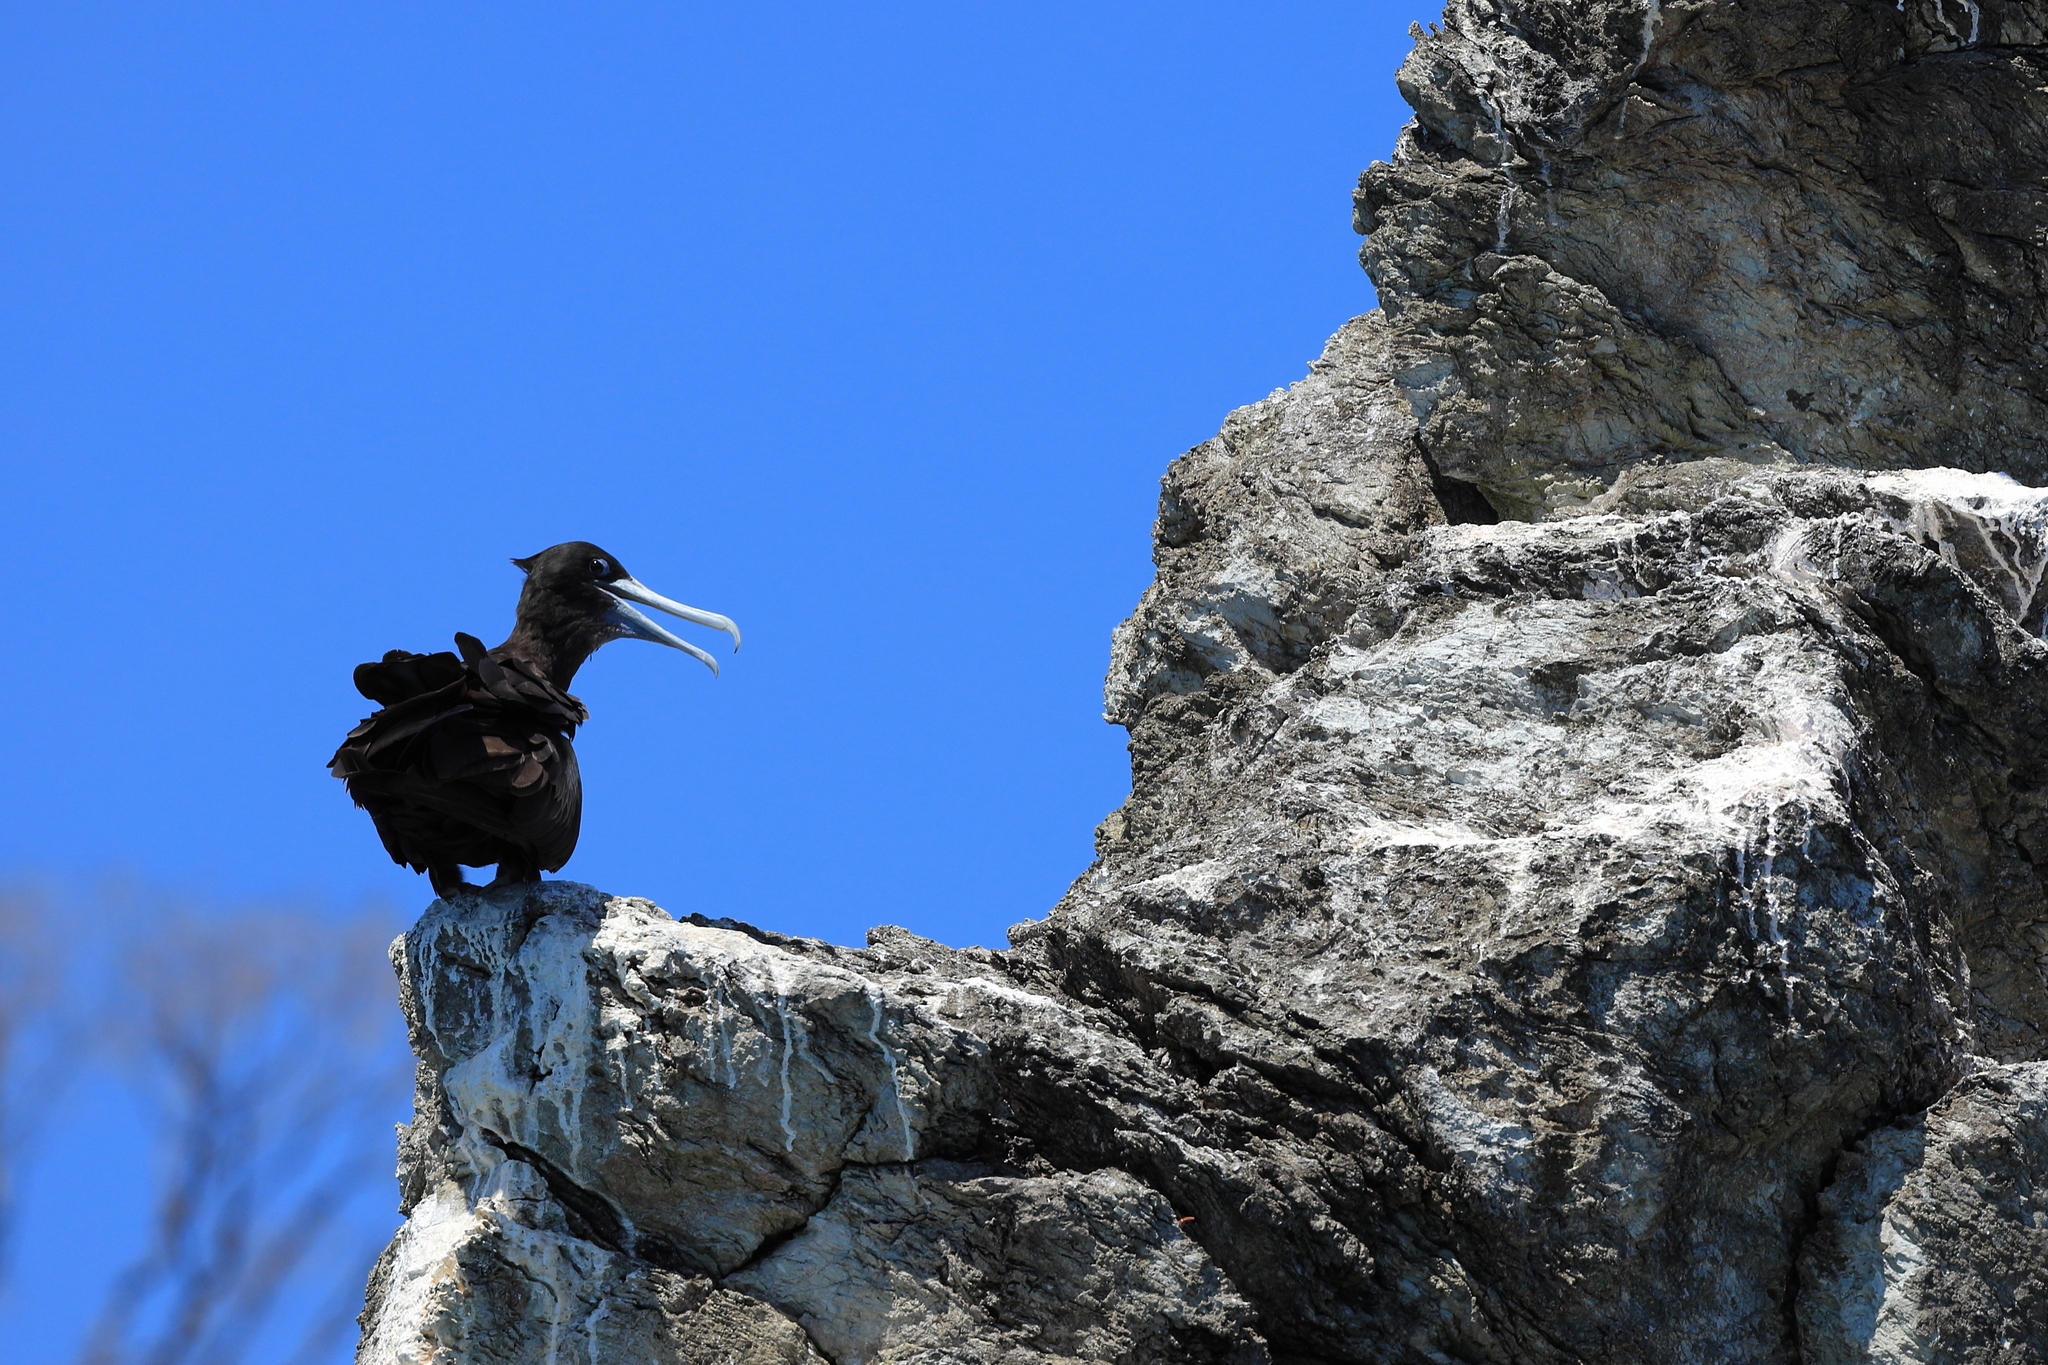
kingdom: Animalia
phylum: Chordata
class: Aves
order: Suliformes
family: Fregatidae
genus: Fregata
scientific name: Fregata magnificens
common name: Magnificent frigatebird
